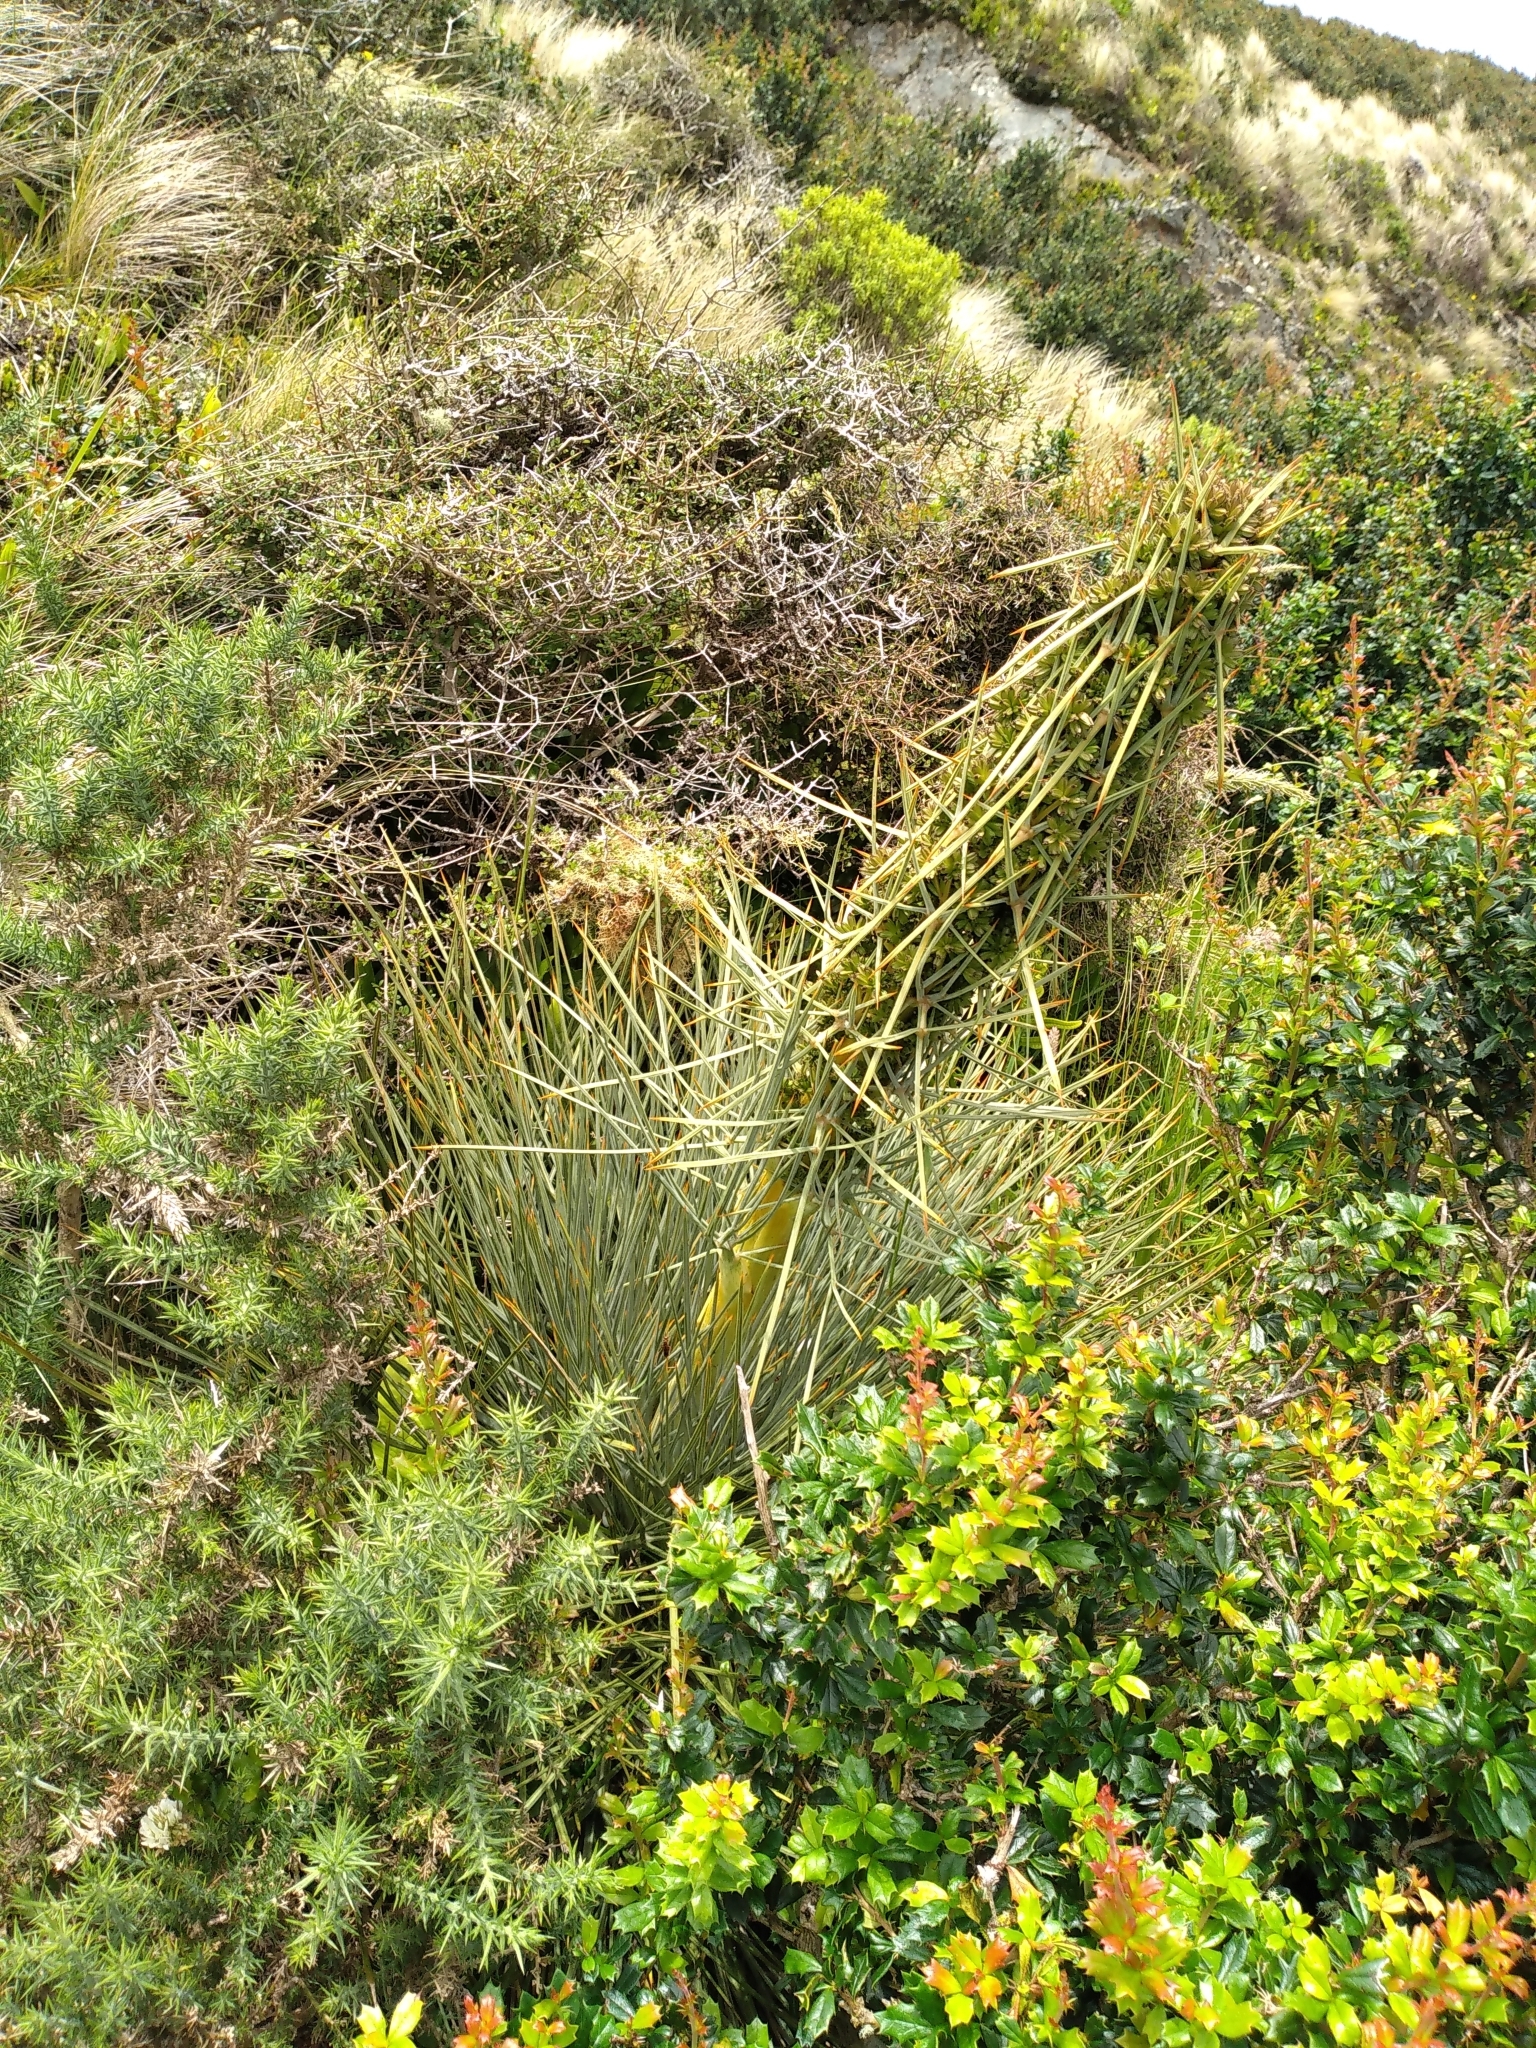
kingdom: Plantae
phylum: Tracheophyta
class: Magnoliopsida
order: Apiales
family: Apiaceae
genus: Aciphylla
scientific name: Aciphylla squarrosa
